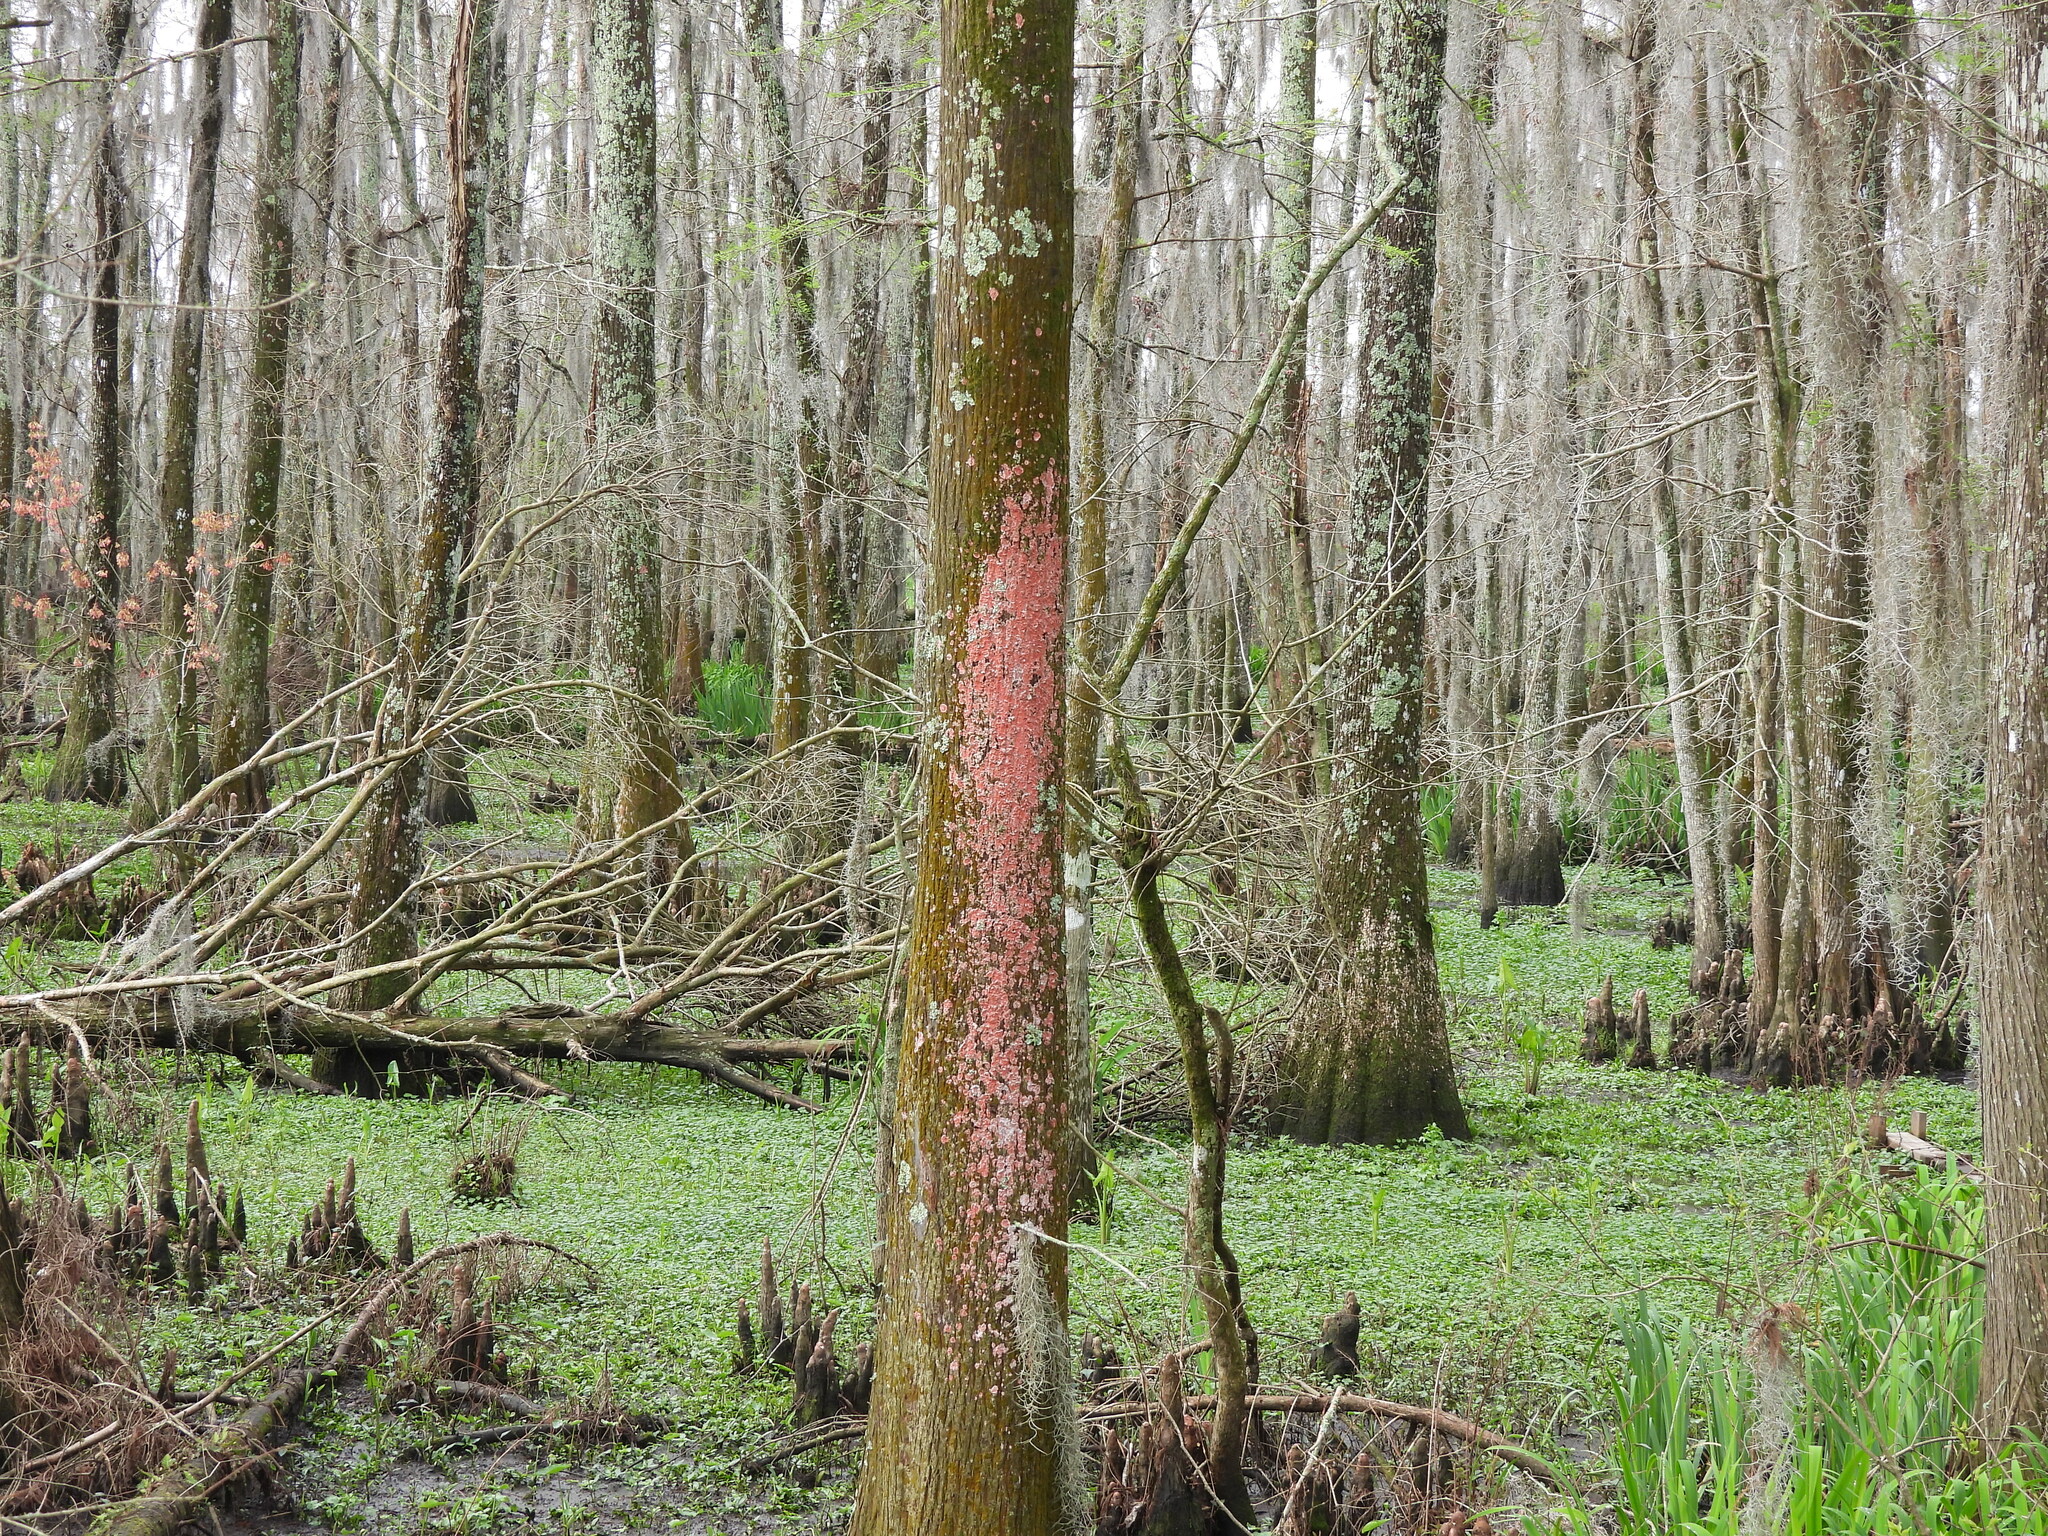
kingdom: Fungi
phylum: Ascomycota
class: Arthoniomycetes
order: Arthoniales
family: Arthoniaceae
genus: Herpothallon
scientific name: Herpothallon rubrocinctum
